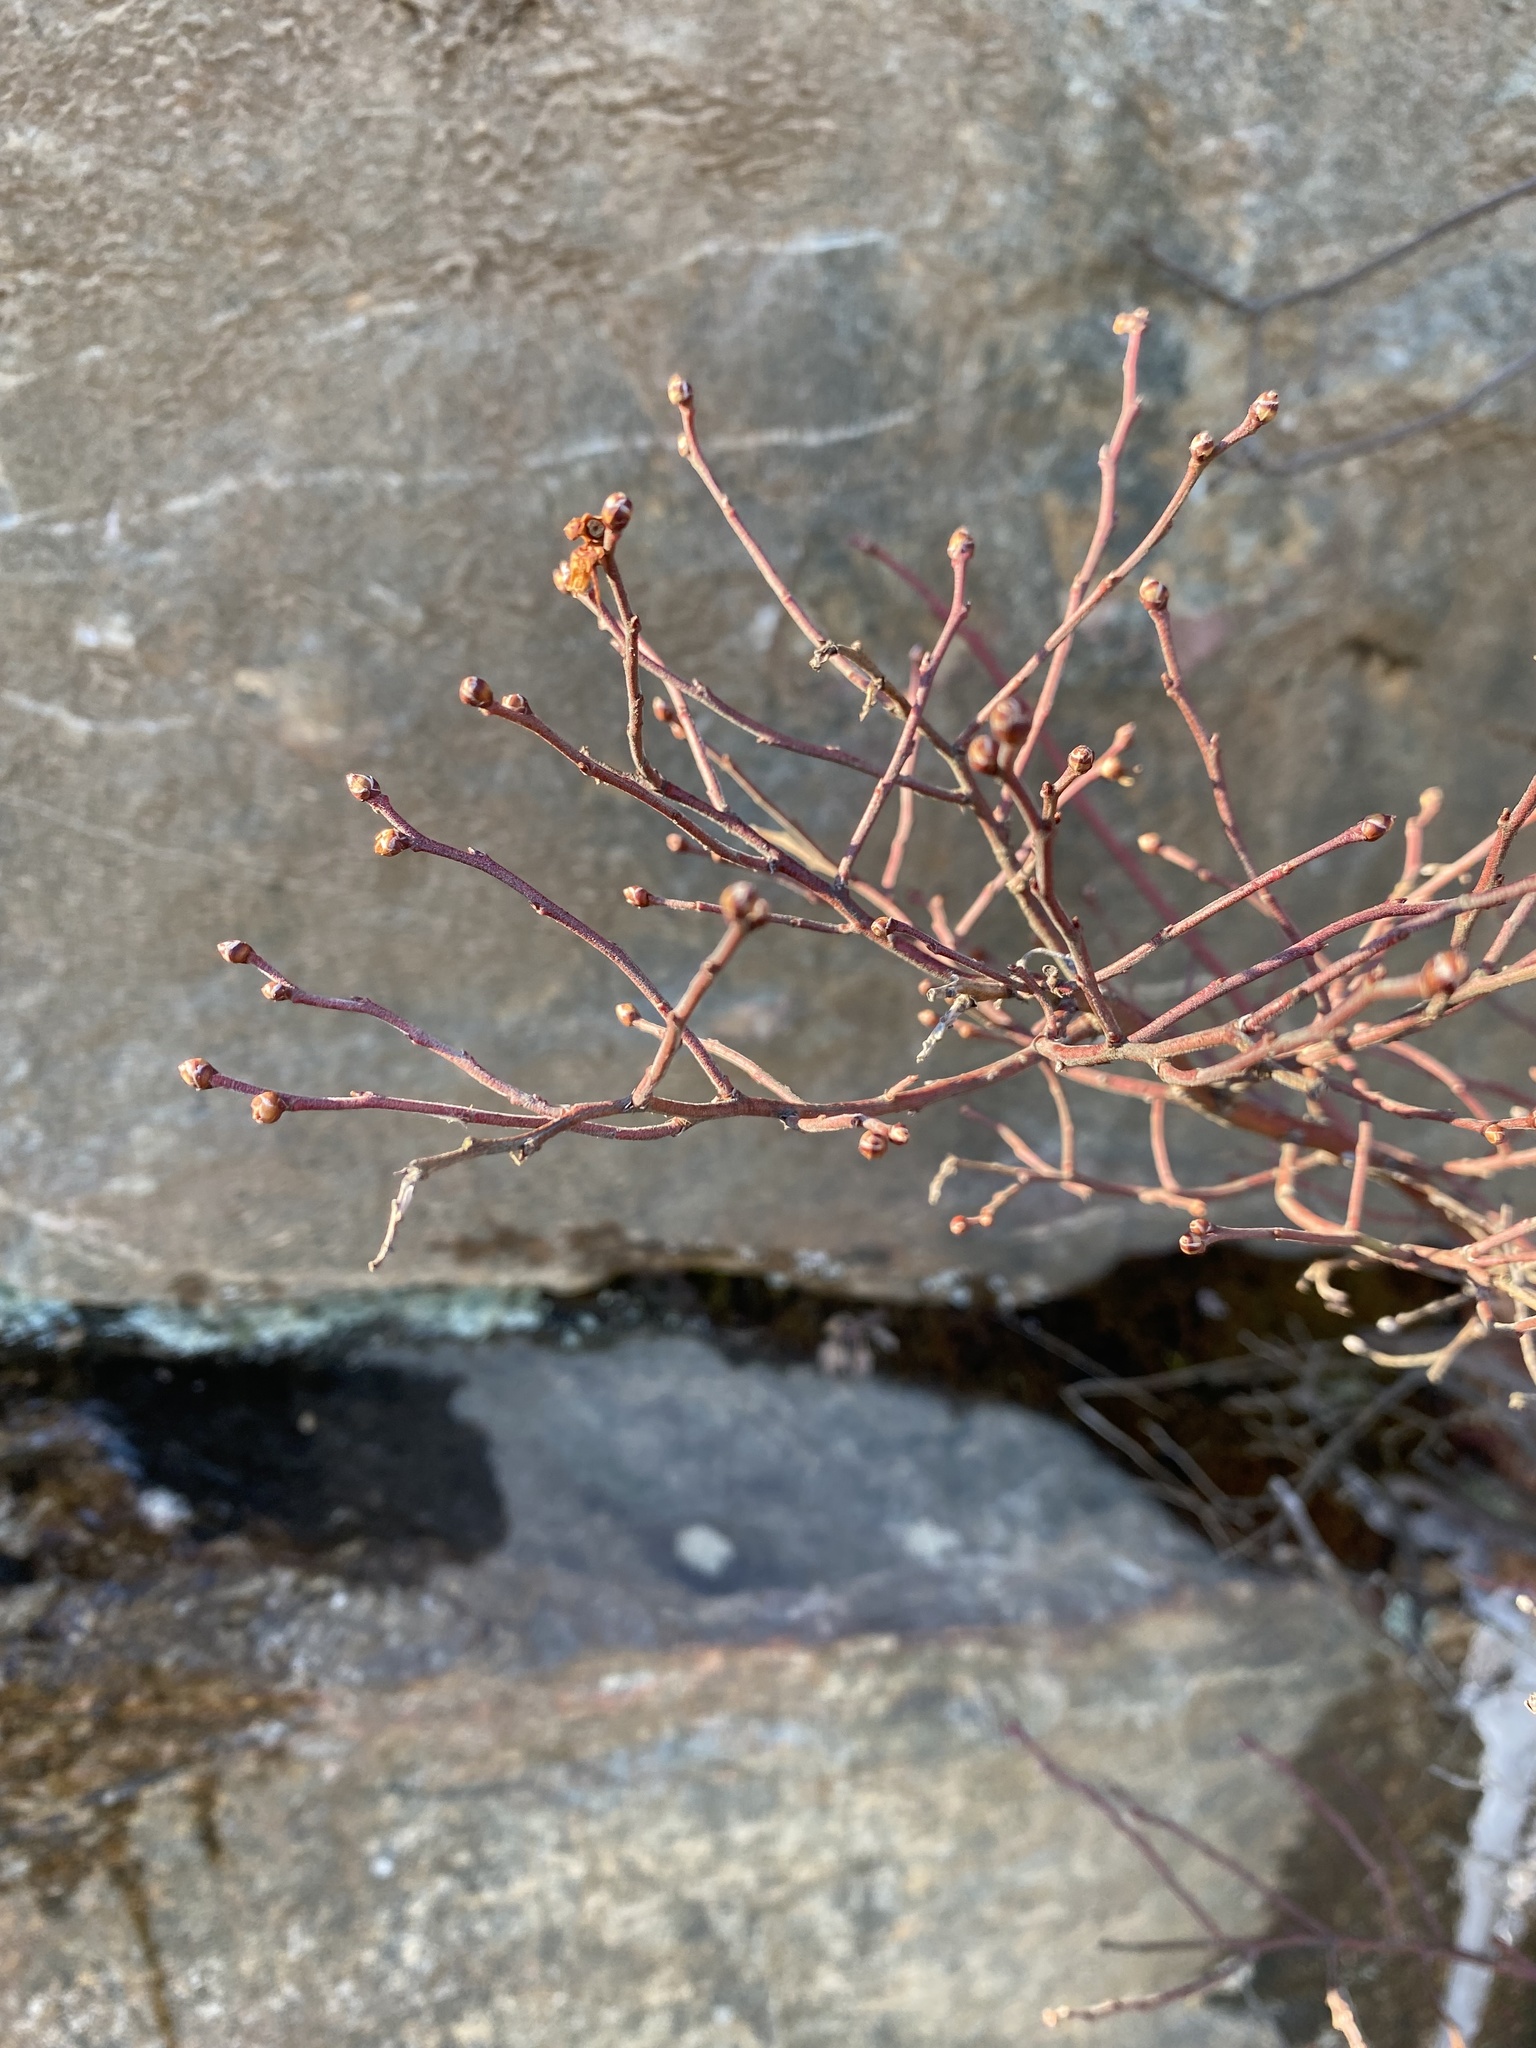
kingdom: Plantae
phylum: Tracheophyta
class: Magnoliopsida
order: Ericales
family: Ericaceae
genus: Vaccinium
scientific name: Vaccinium corymbosum
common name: Blueberry
